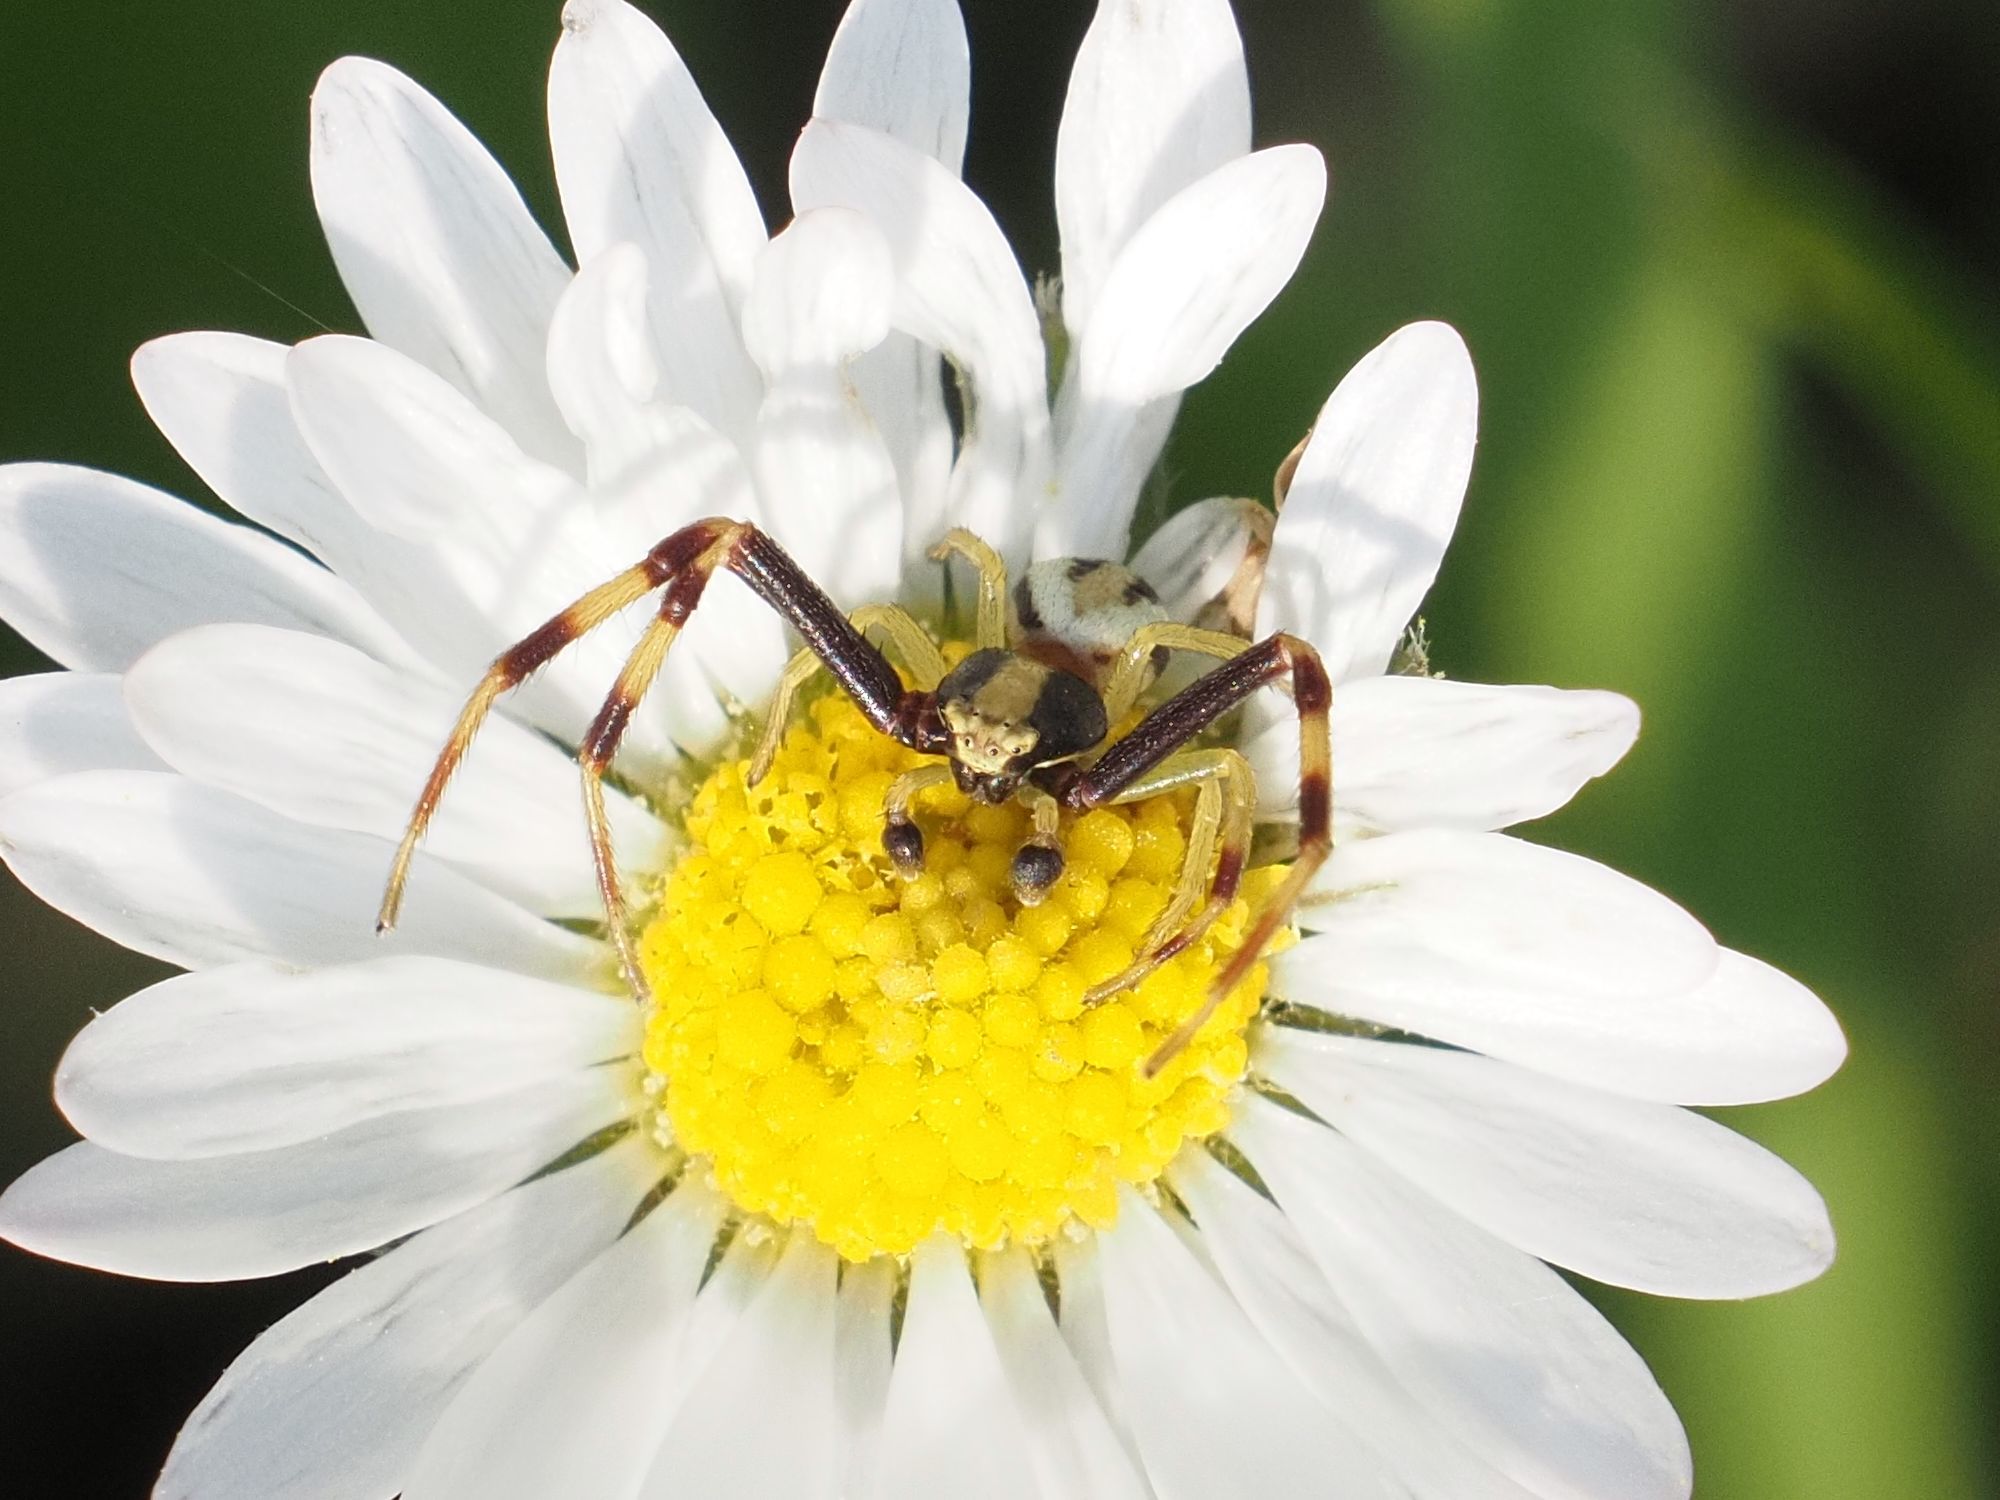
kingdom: Animalia
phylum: Arthropoda
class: Arachnida
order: Araneae
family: Thomisidae
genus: Misumena
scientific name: Misumena vatia
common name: Goldenrod crab spider
